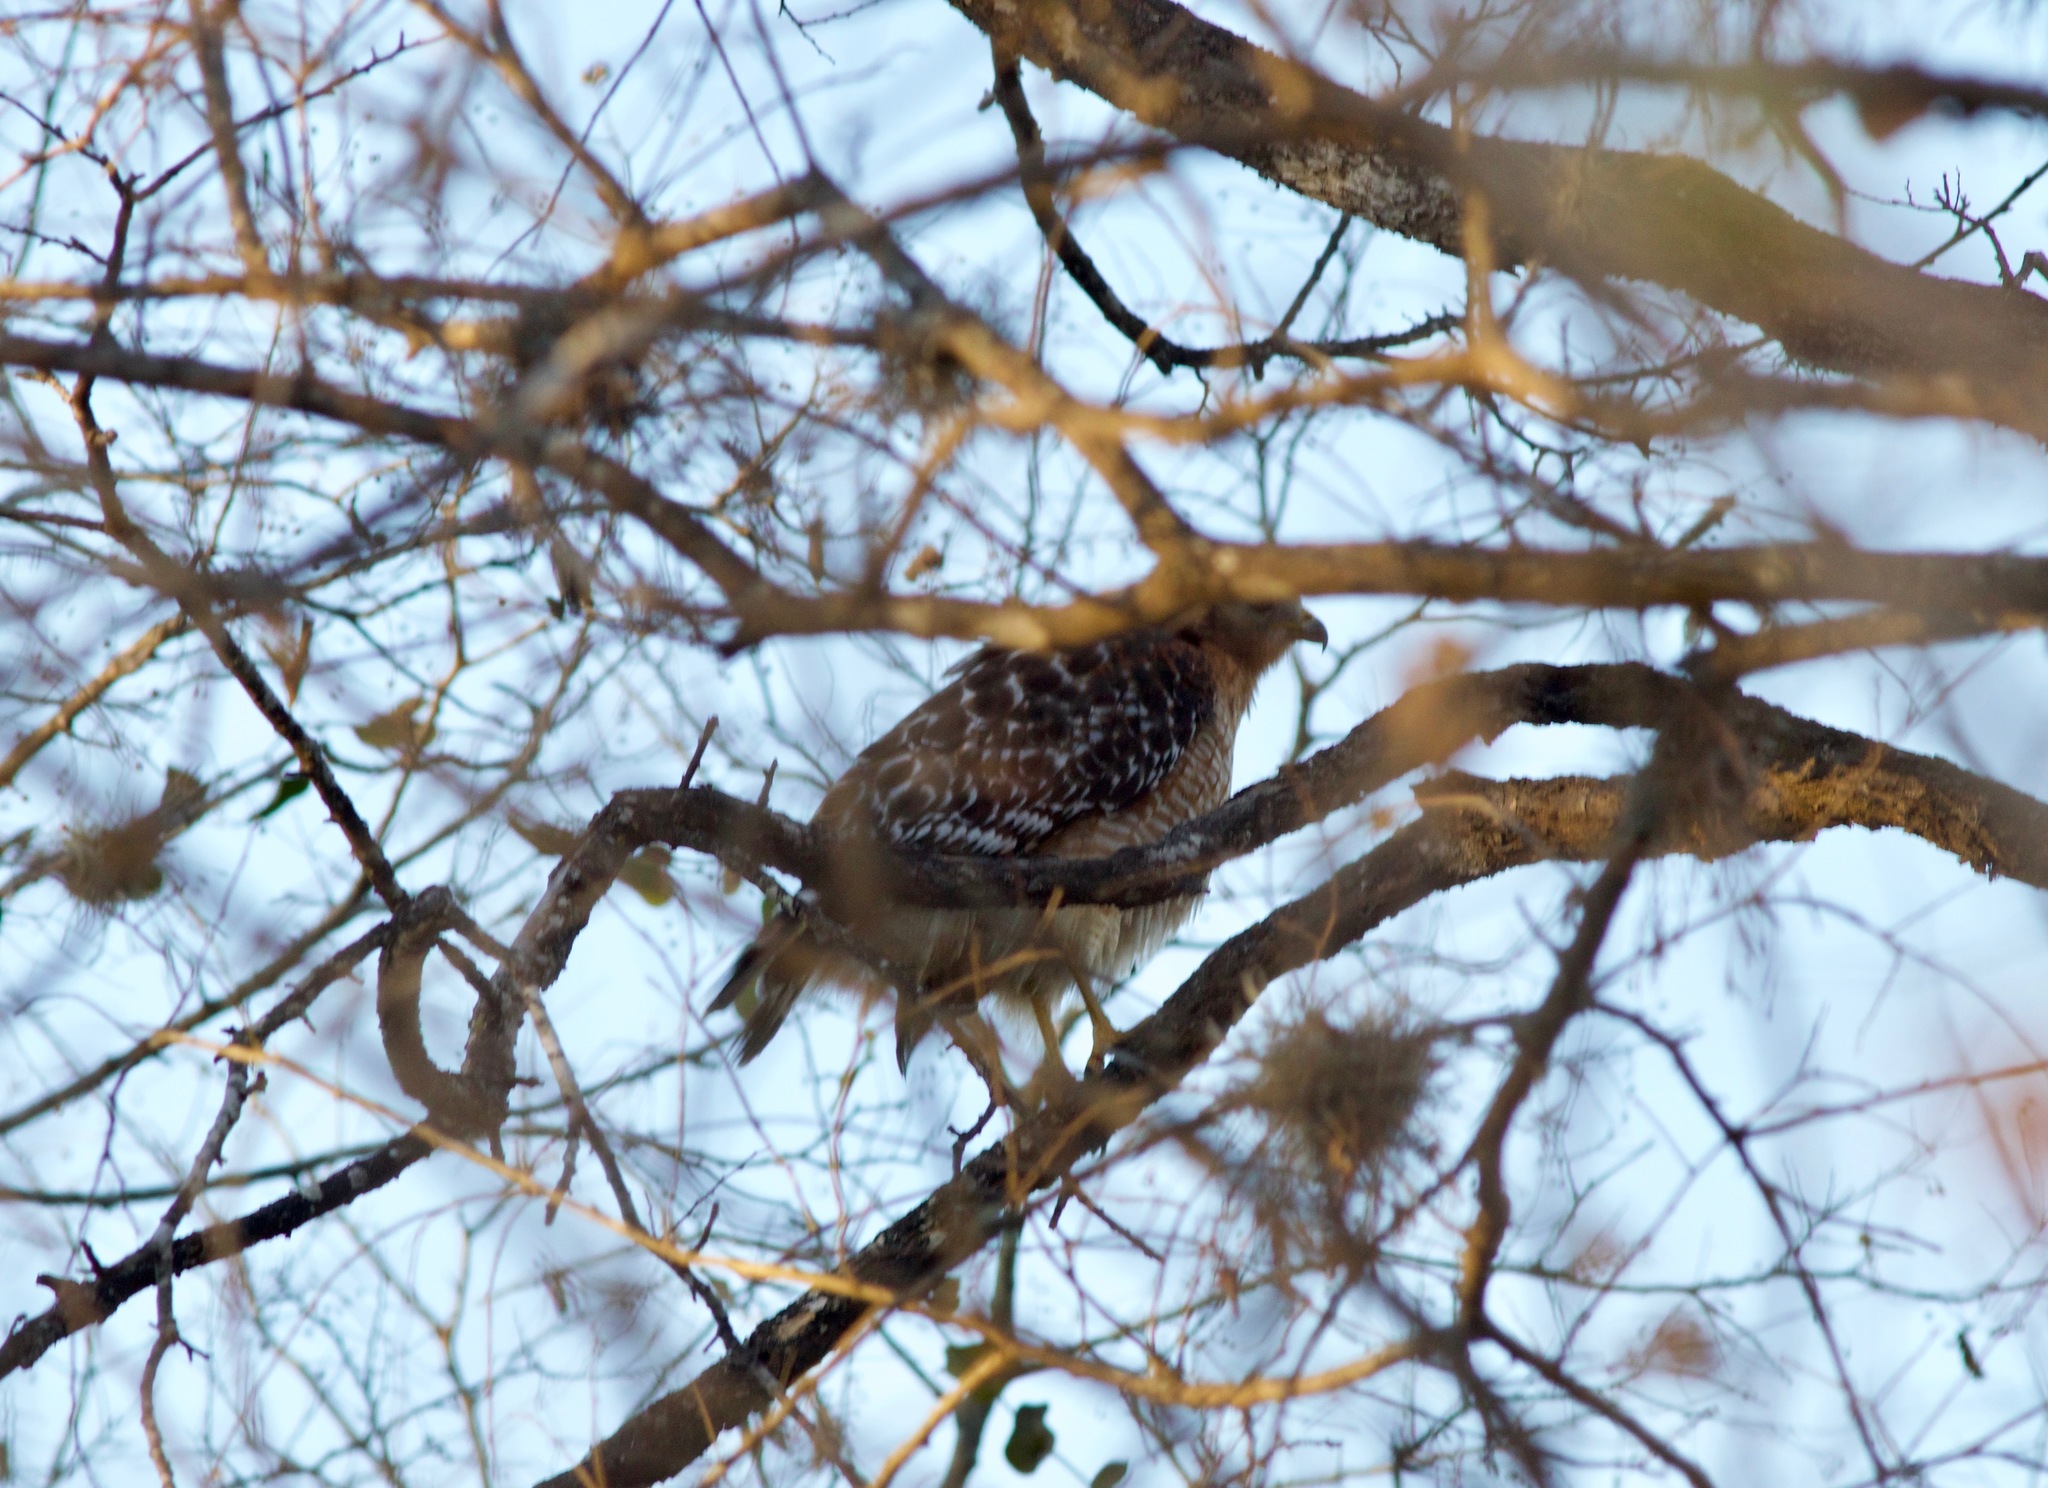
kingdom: Animalia
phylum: Chordata
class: Aves
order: Accipitriformes
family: Accipitridae
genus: Buteo
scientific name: Buteo lineatus
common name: Red-shouldered hawk
